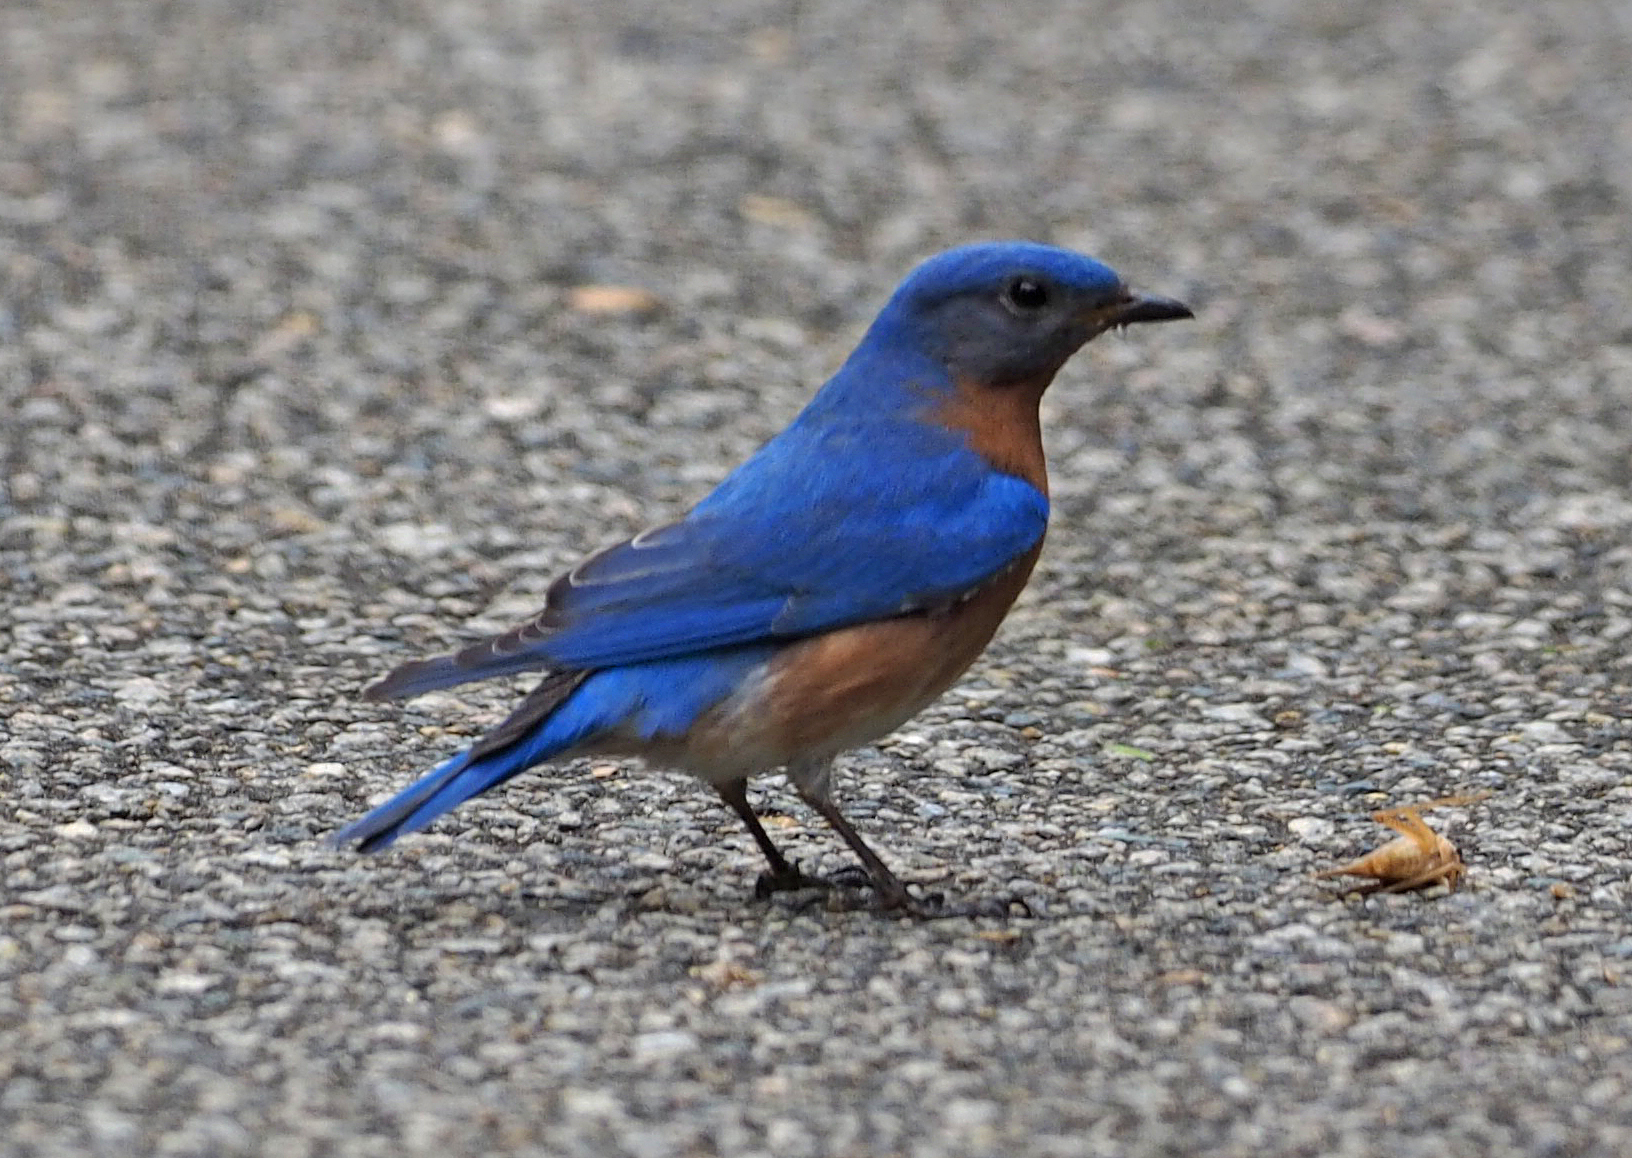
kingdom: Animalia
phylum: Chordata
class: Aves
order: Passeriformes
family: Turdidae
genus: Sialia
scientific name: Sialia sialis
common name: Eastern bluebird
